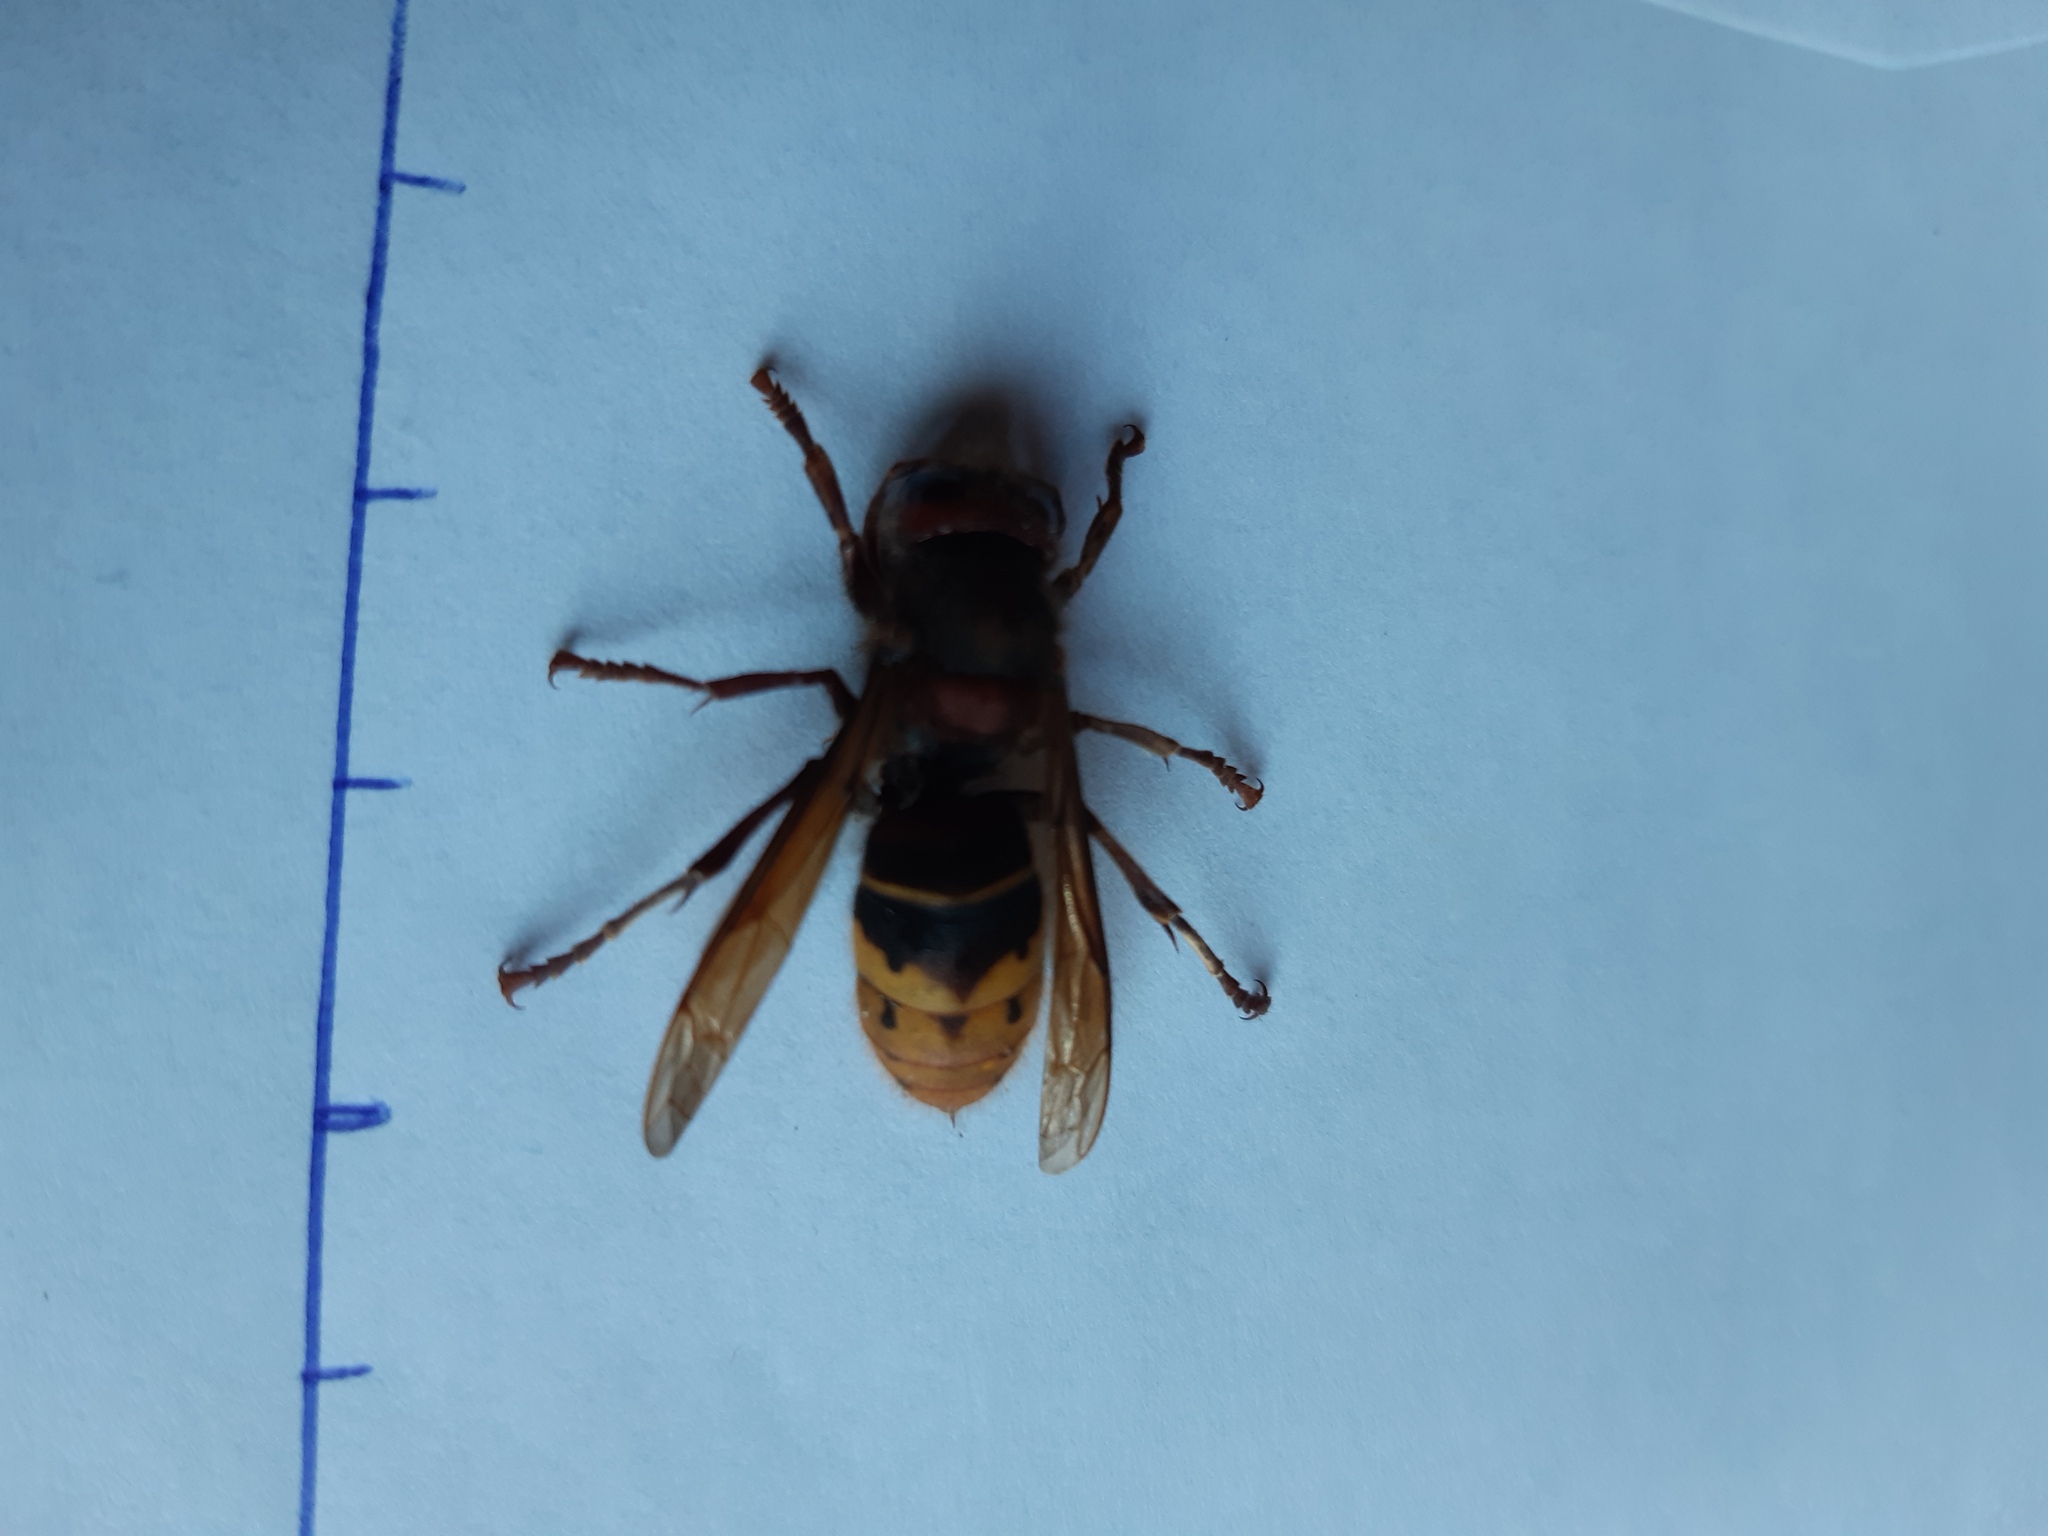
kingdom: Animalia
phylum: Arthropoda
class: Insecta
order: Hymenoptera
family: Vespidae
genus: Vespa
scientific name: Vespa crabro
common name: Hornet
